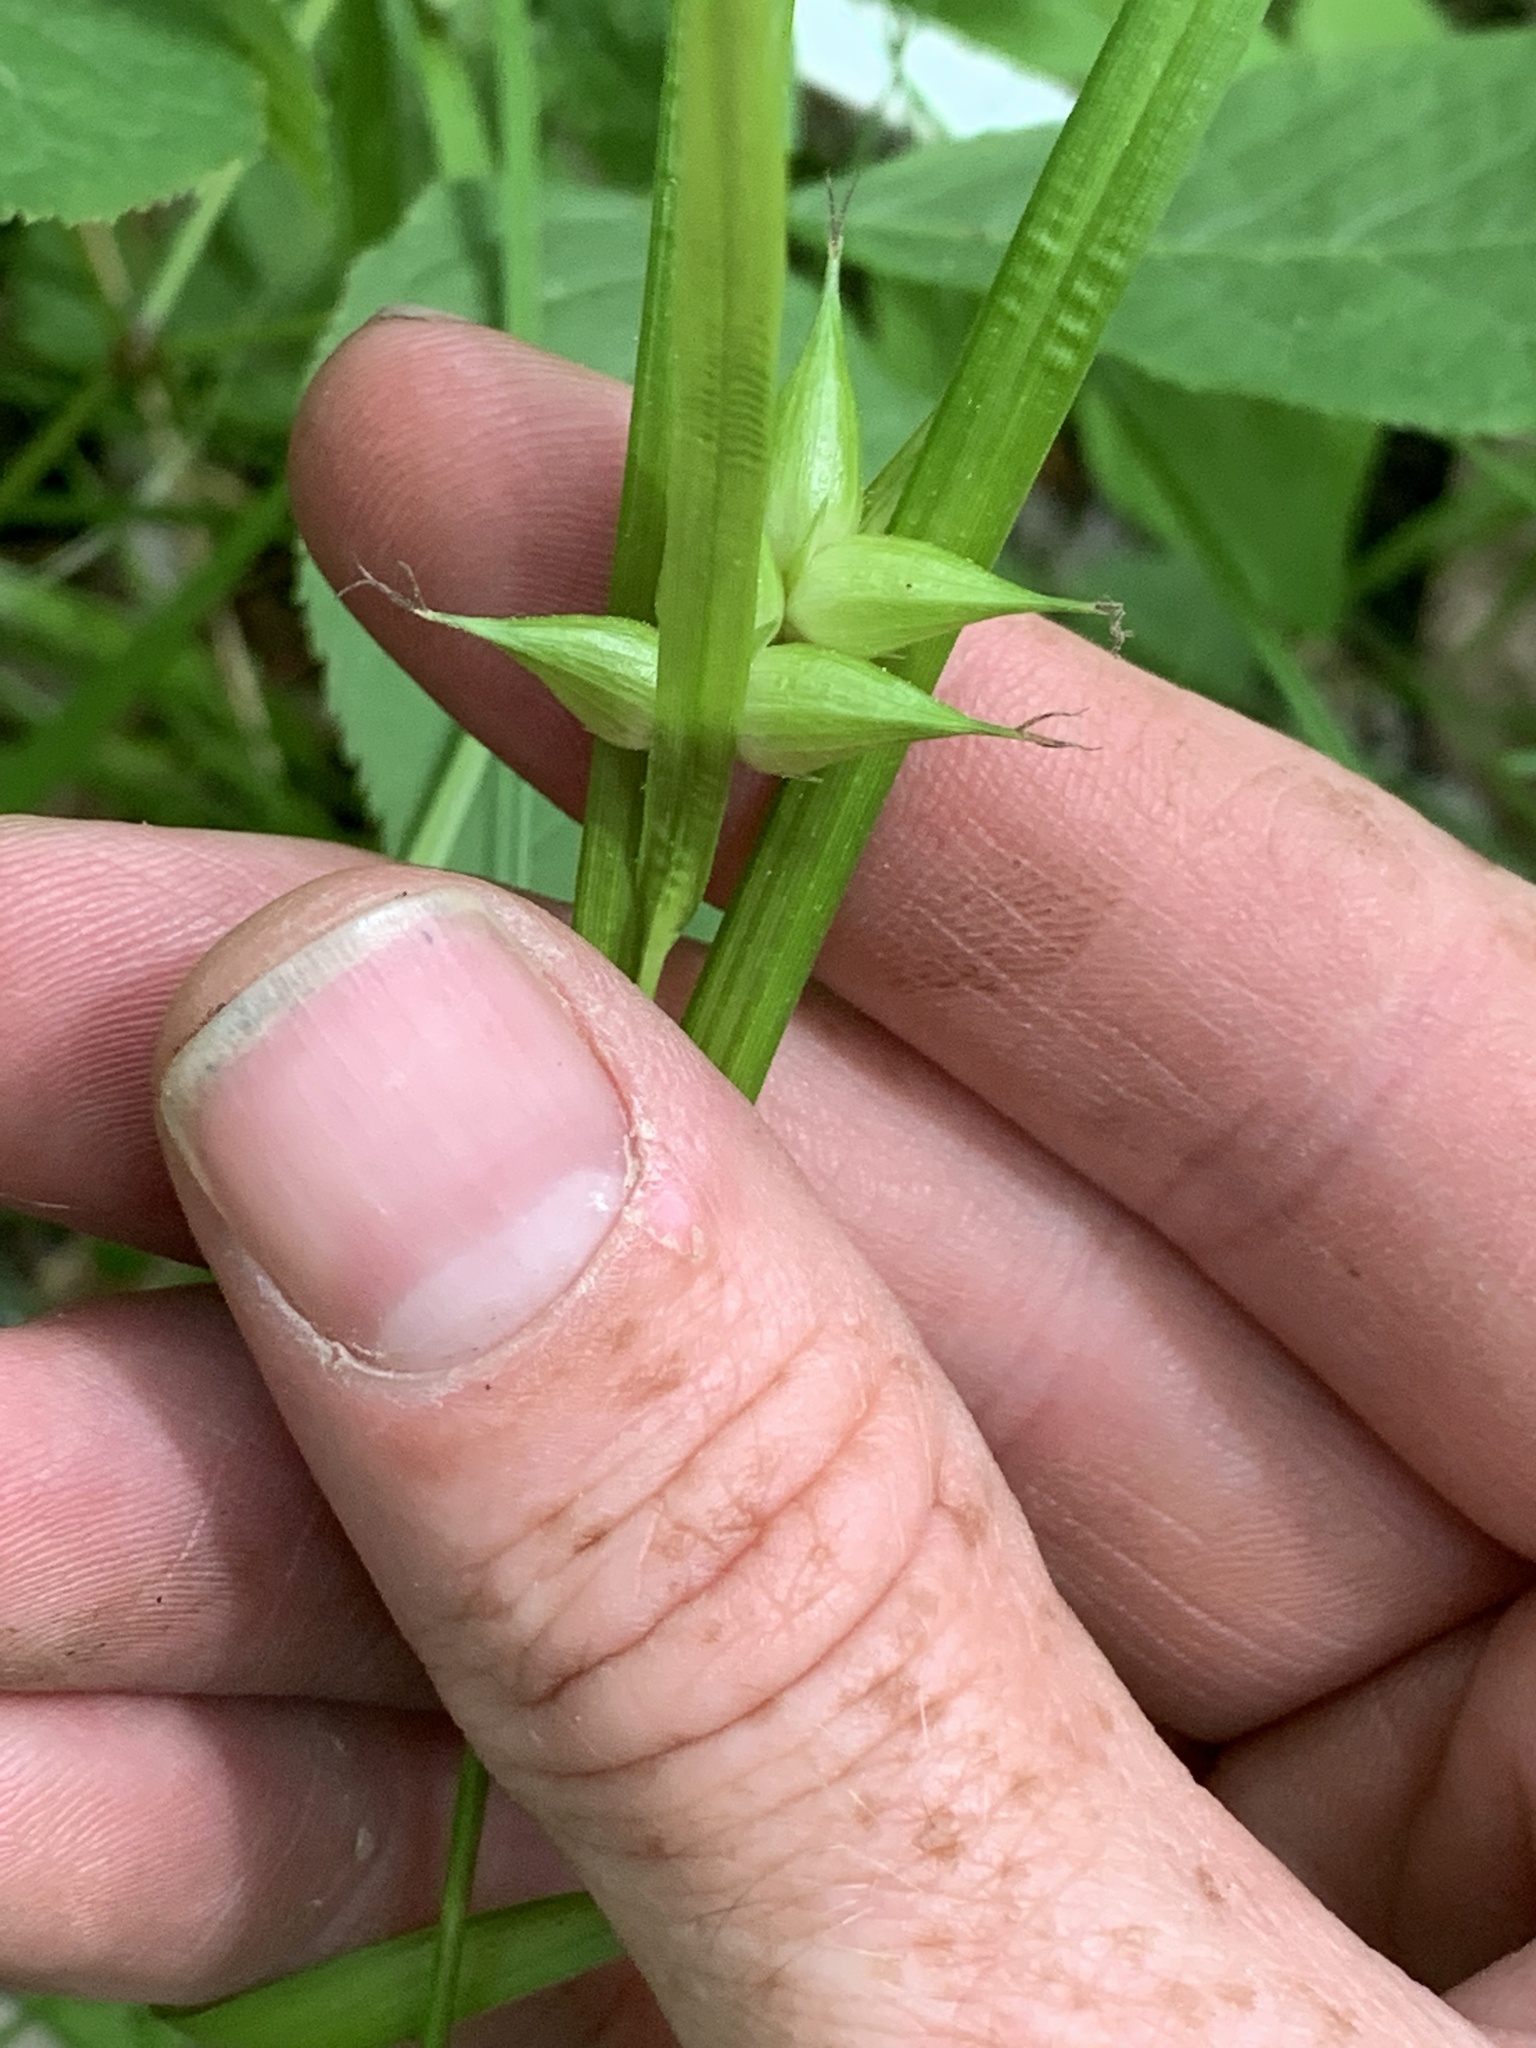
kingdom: Plantae
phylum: Tracheophyta
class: Liliopsida
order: Poales
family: Cyperaceae
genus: Carex
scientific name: Carex intumescens
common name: Greater bladder sedge
